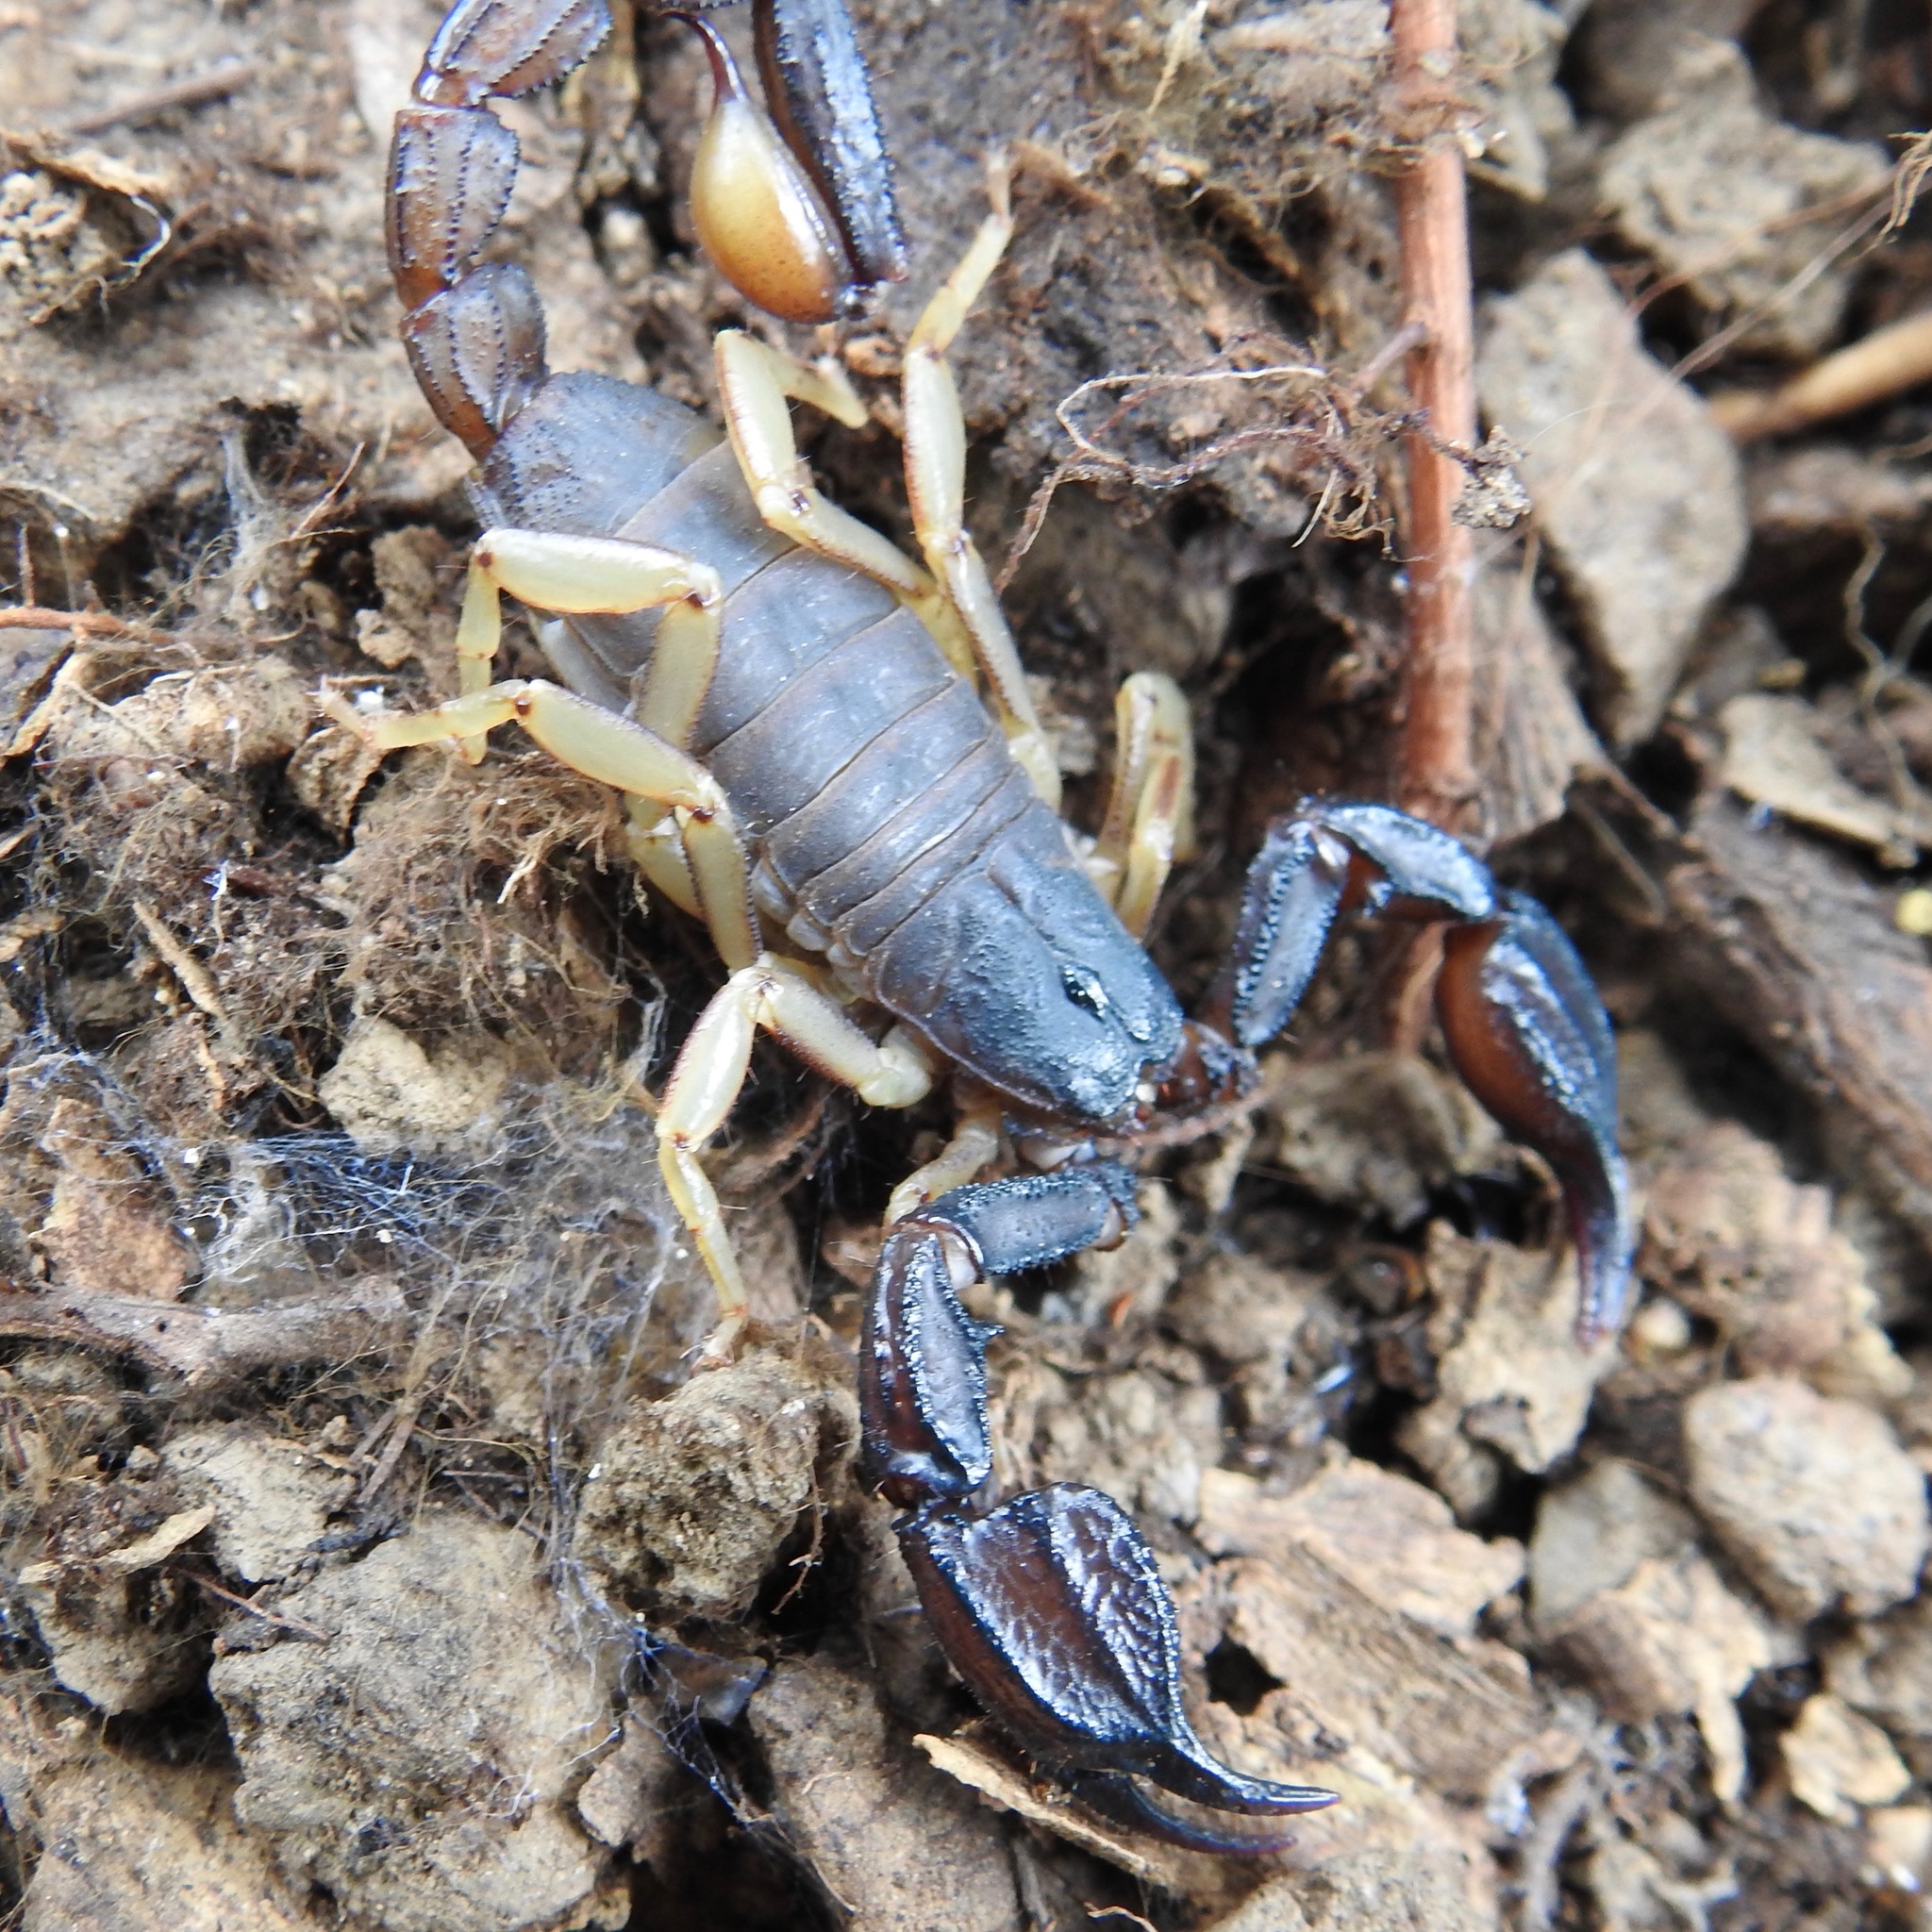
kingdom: Animalia
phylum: Arthropoda
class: Arachnida
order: Scorpiones
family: Chactidae
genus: Uroctonus
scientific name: Uroctonus mordax
